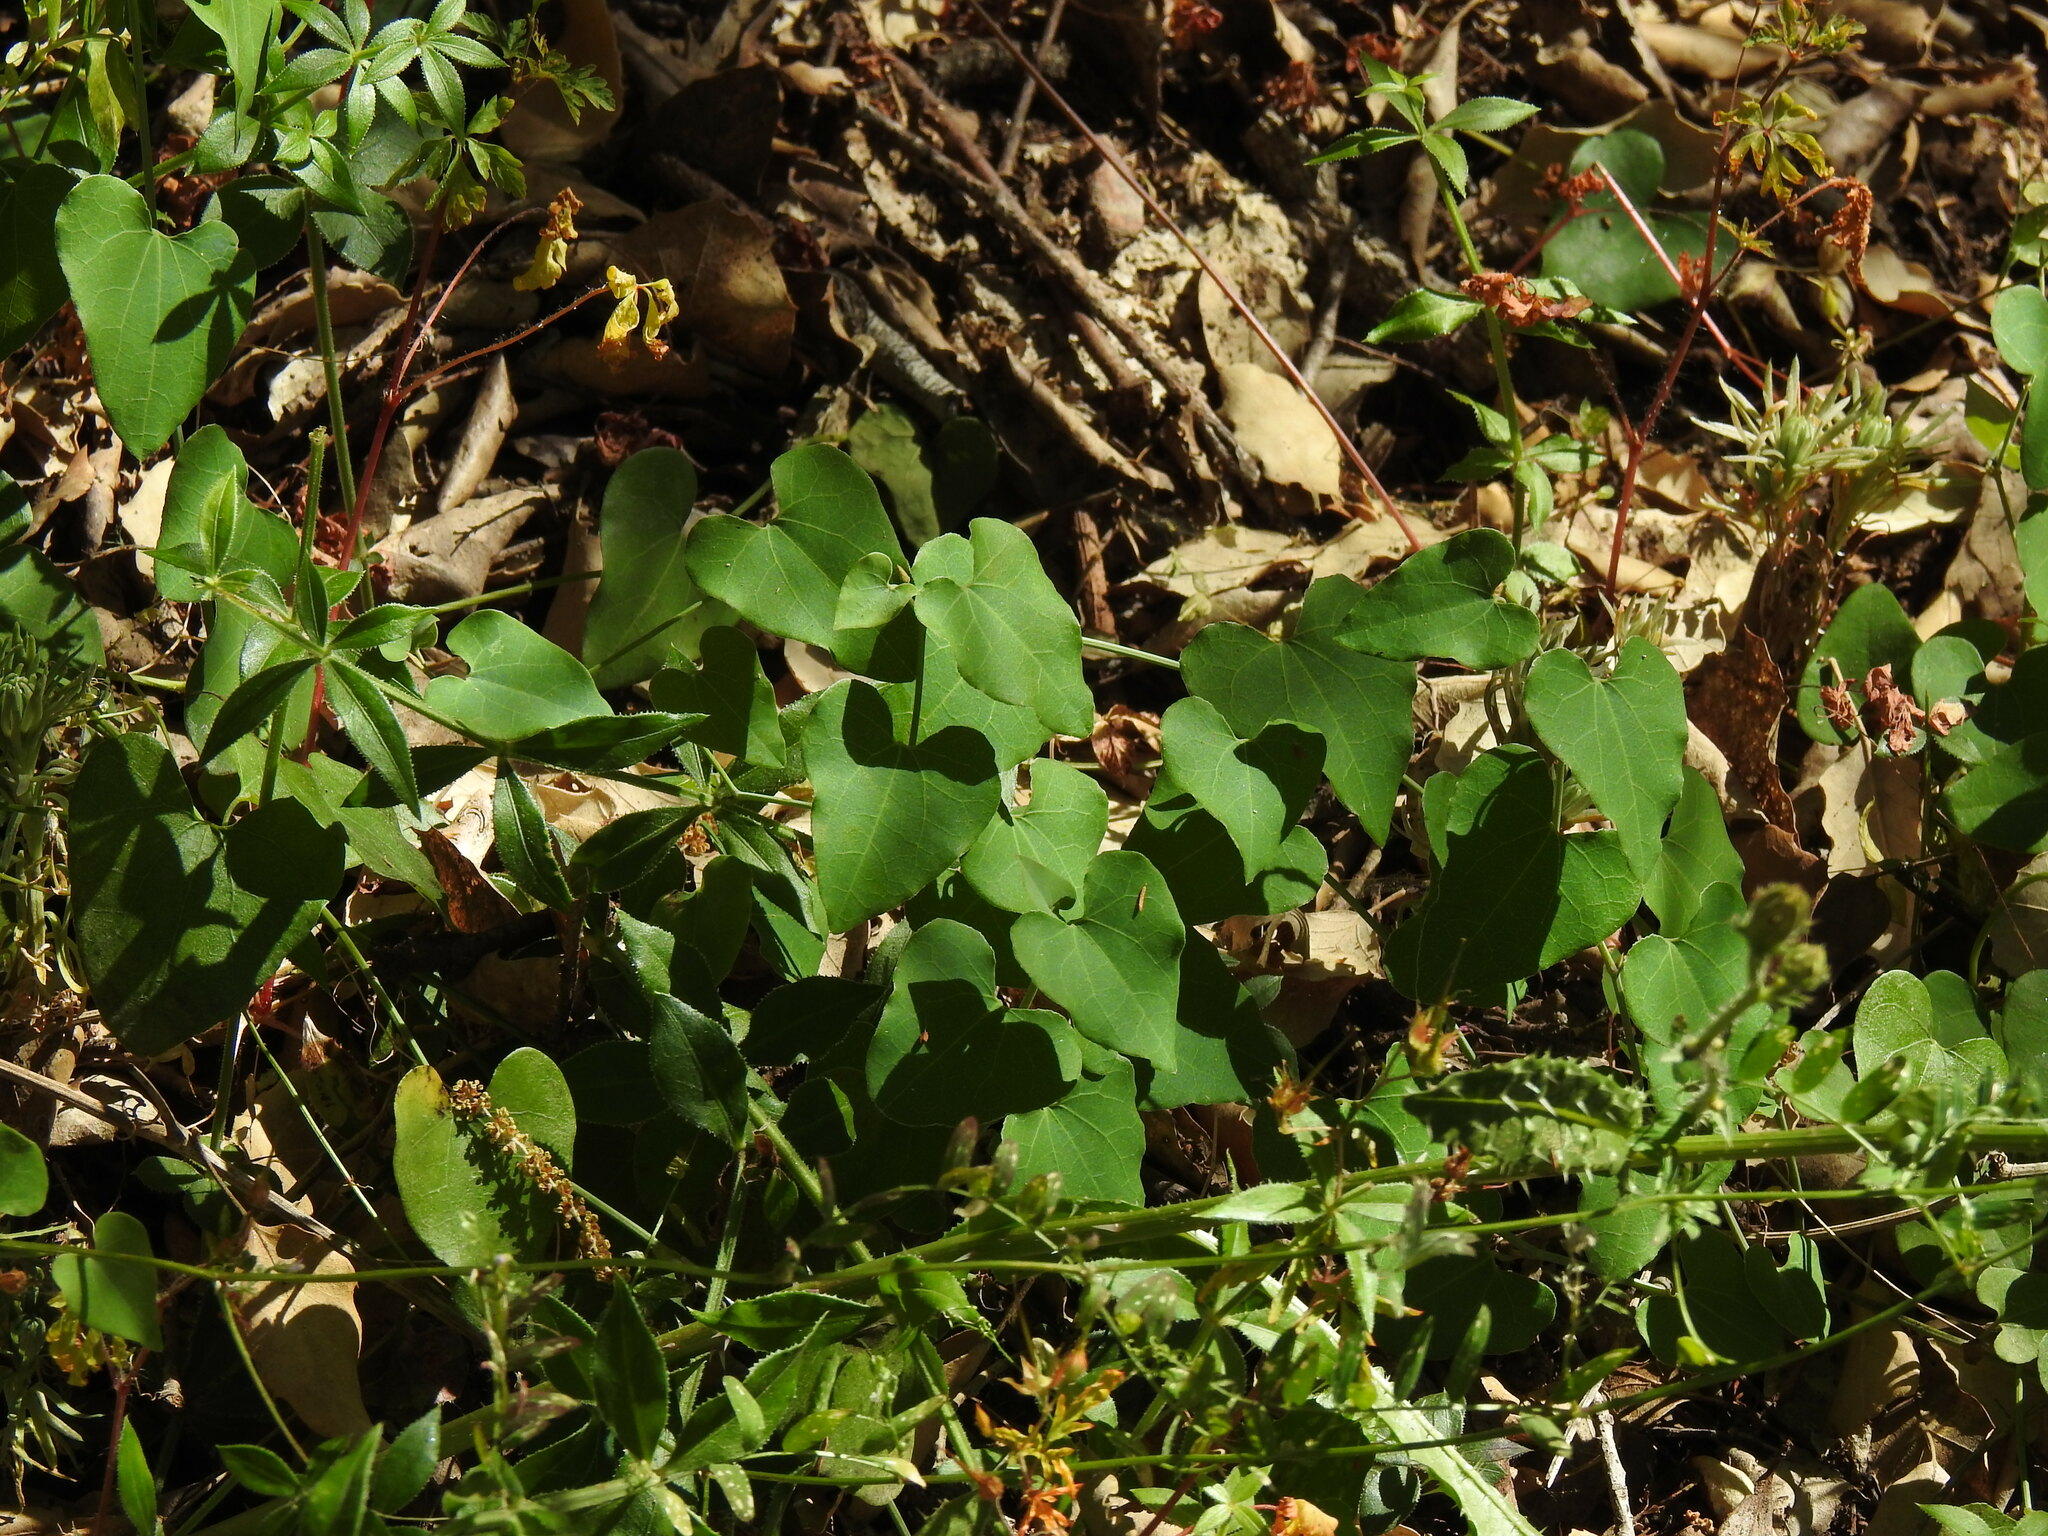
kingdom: Plantae
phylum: Tracheophyta
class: Magnoliopsida
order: Piperales
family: Aristolochiaceae
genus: Aristolochia
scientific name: Aristolochia baetica
